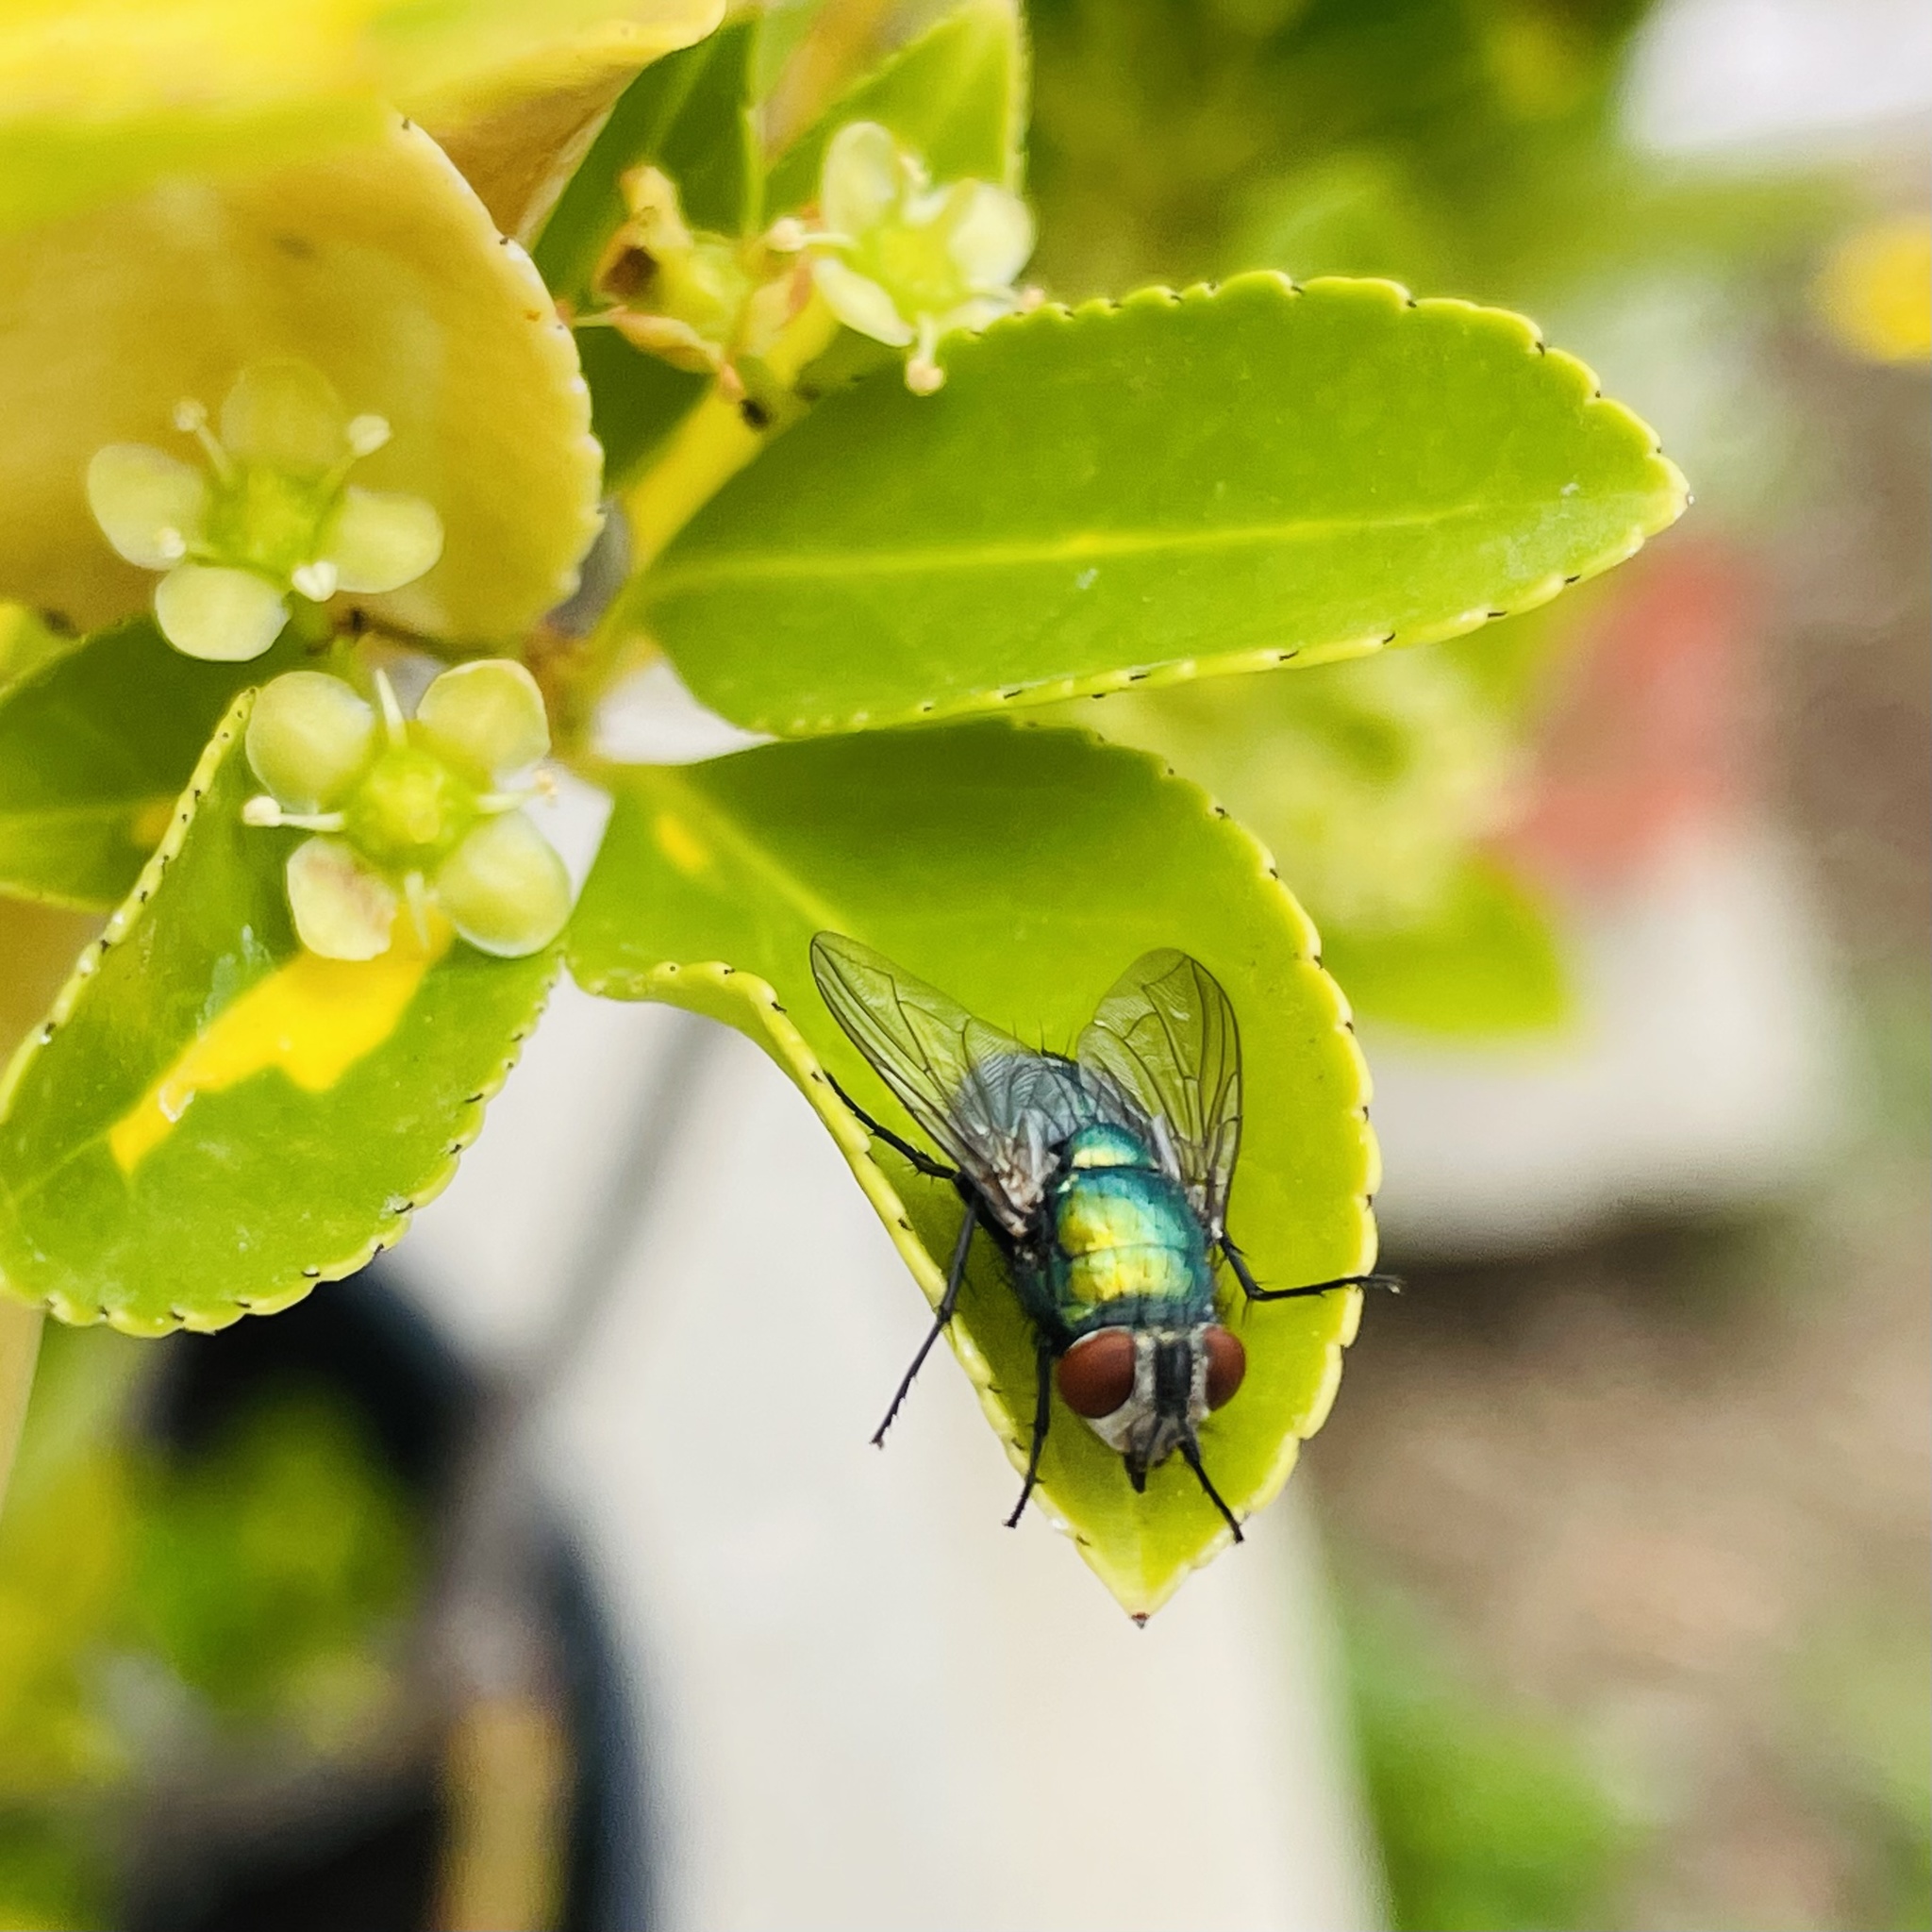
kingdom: Animalia
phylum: Arthropoda
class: Insecta
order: Diptera
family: Calliphoridae
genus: Lucilia
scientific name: Lucilia sericata
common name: Blow fly
